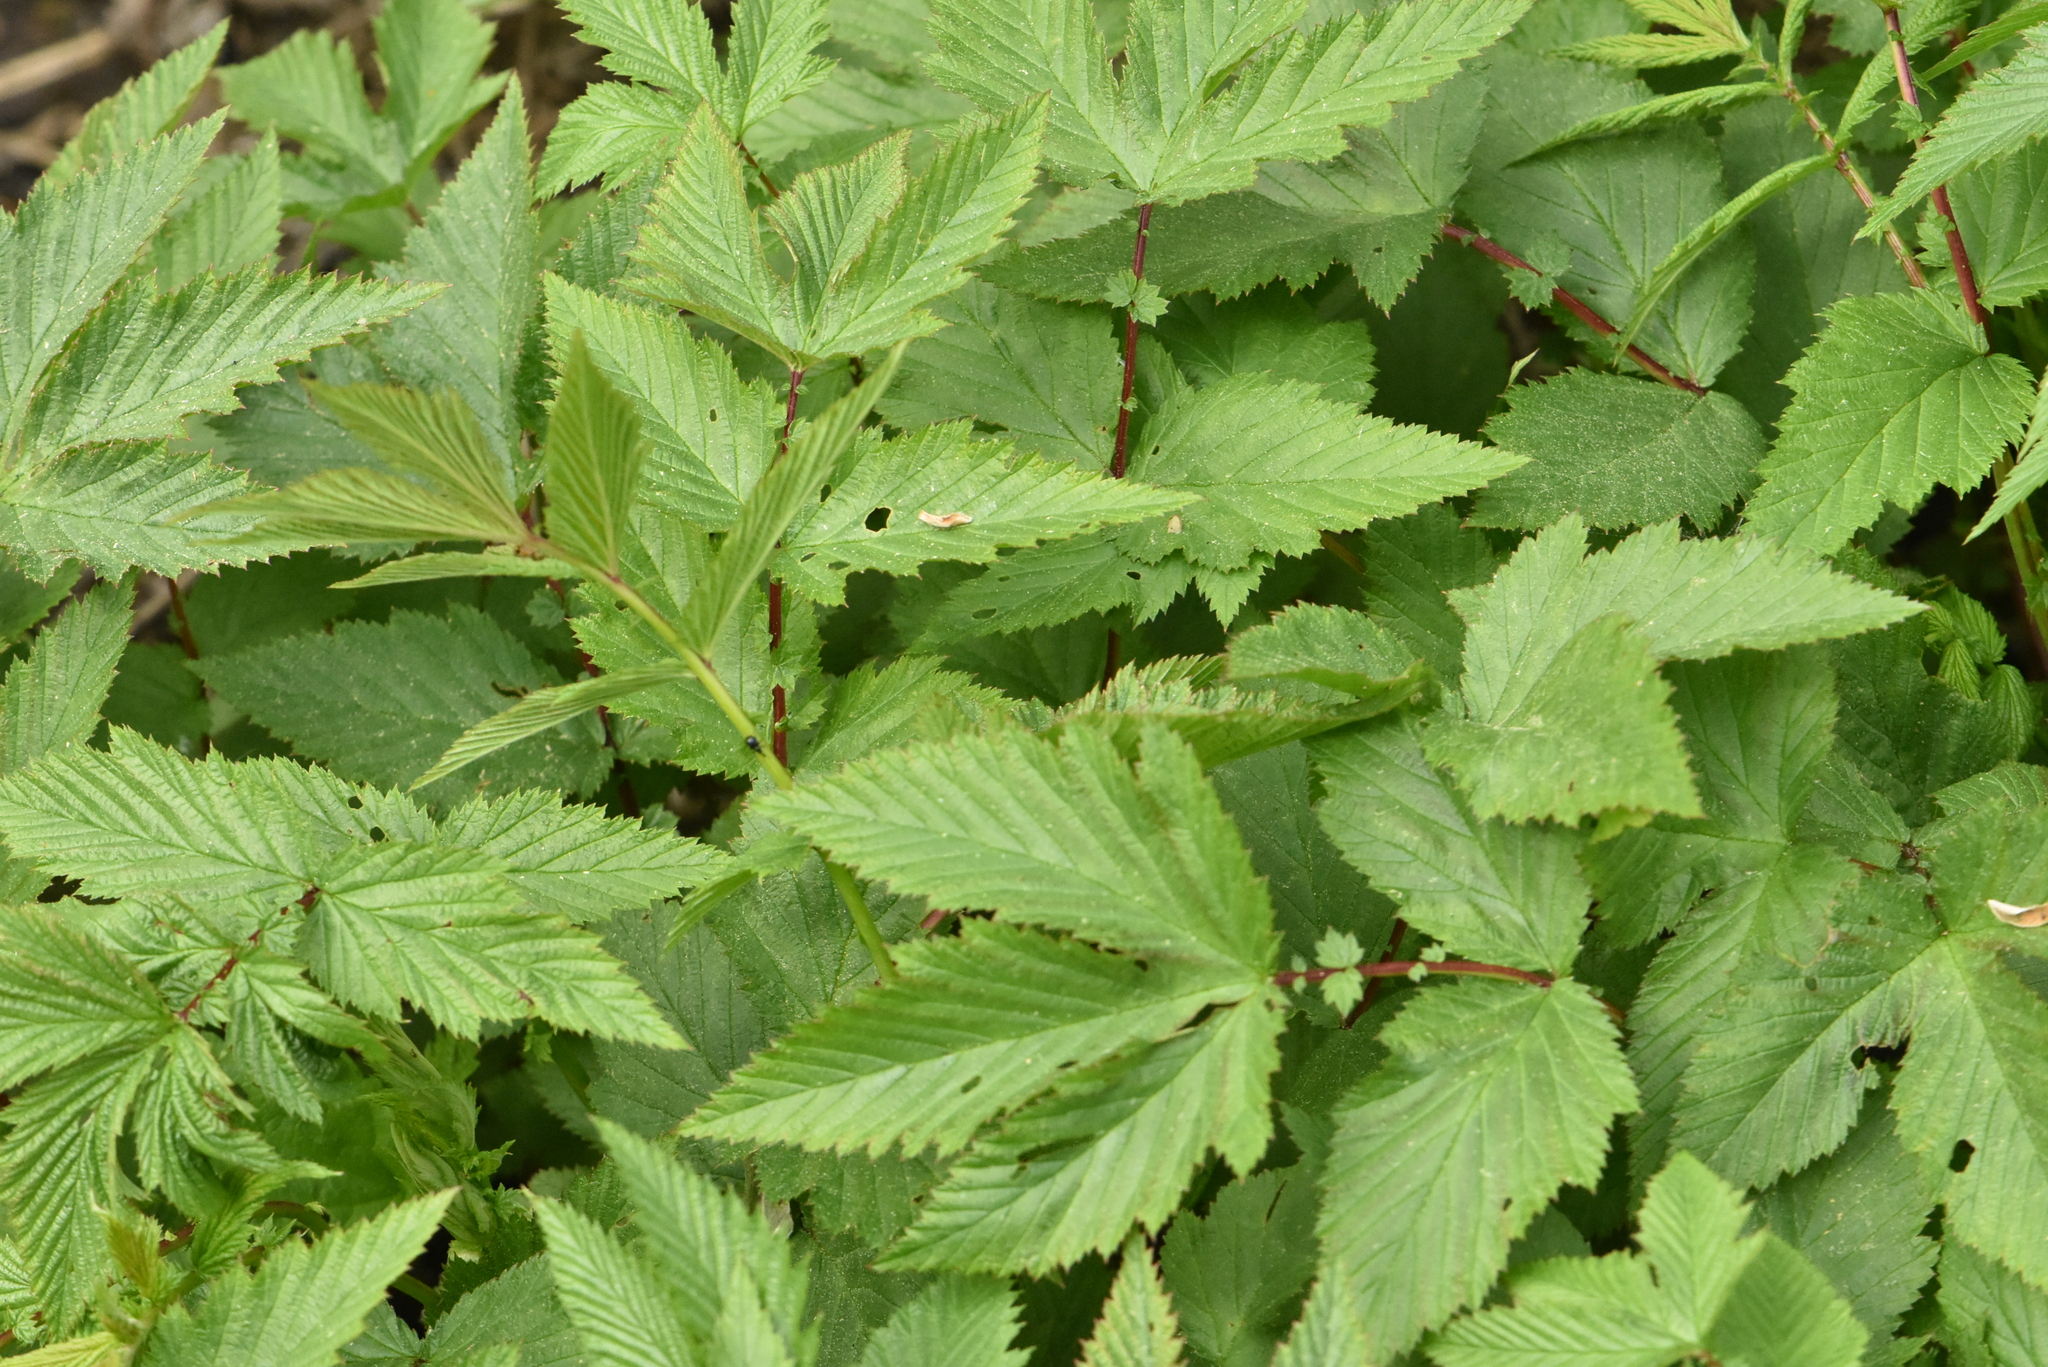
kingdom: Plantae
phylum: Tracheophyta
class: Magnoliopsida
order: Rosales
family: Rosaceae
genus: Filipendula
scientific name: Filipendula ulmaria
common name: Meadowsweet
